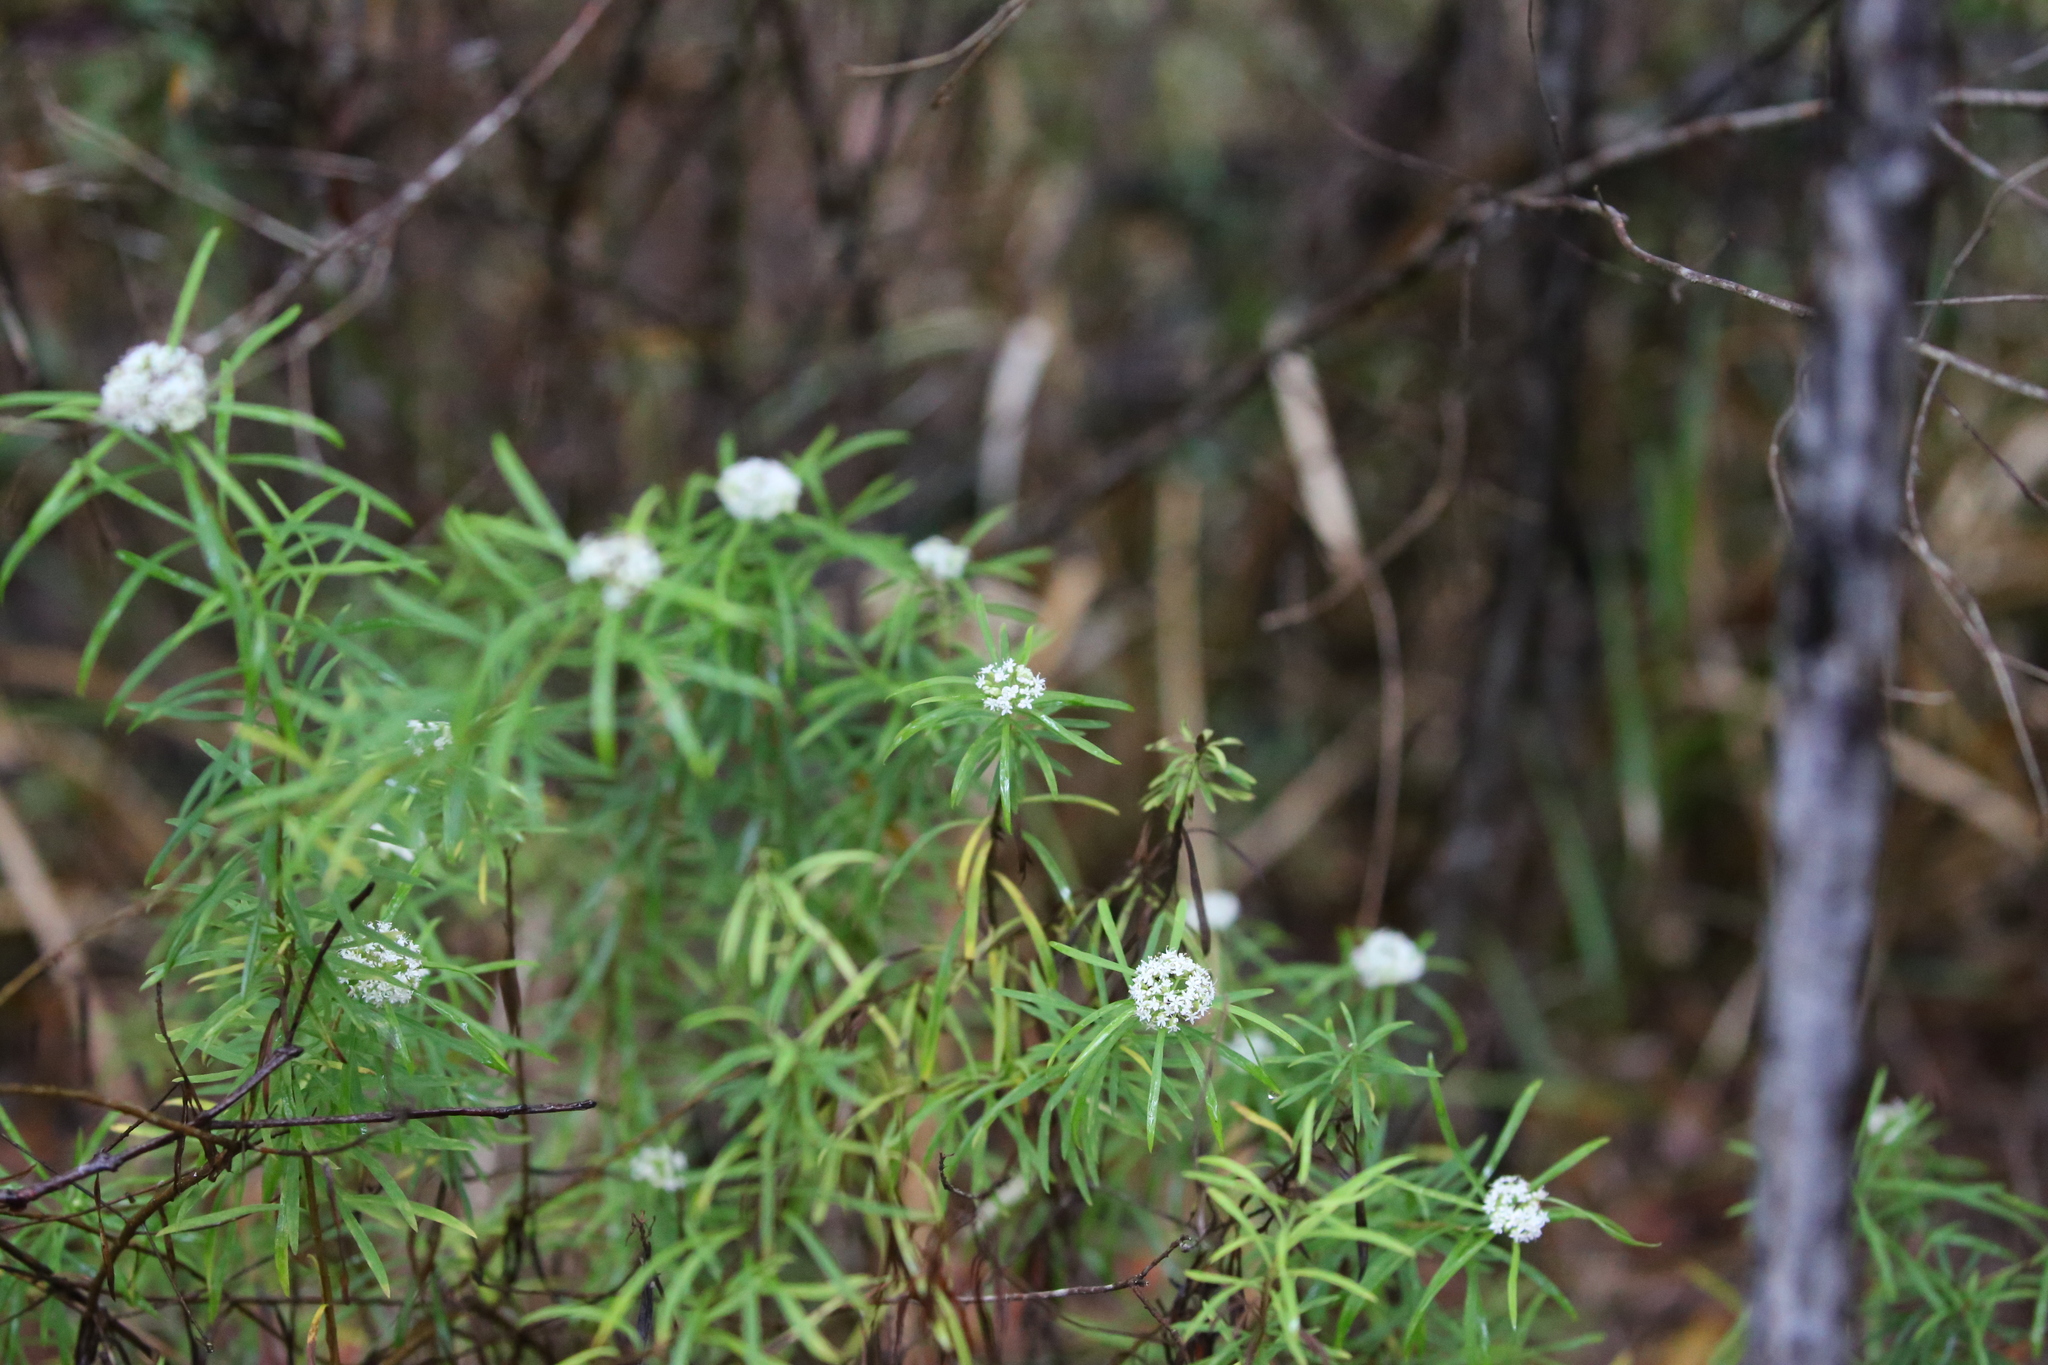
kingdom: Plantae
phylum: Tracheophyta
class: Magnoliopsida
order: Apiales
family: Apiaceae
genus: Platysace
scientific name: Platysace lanceolata
